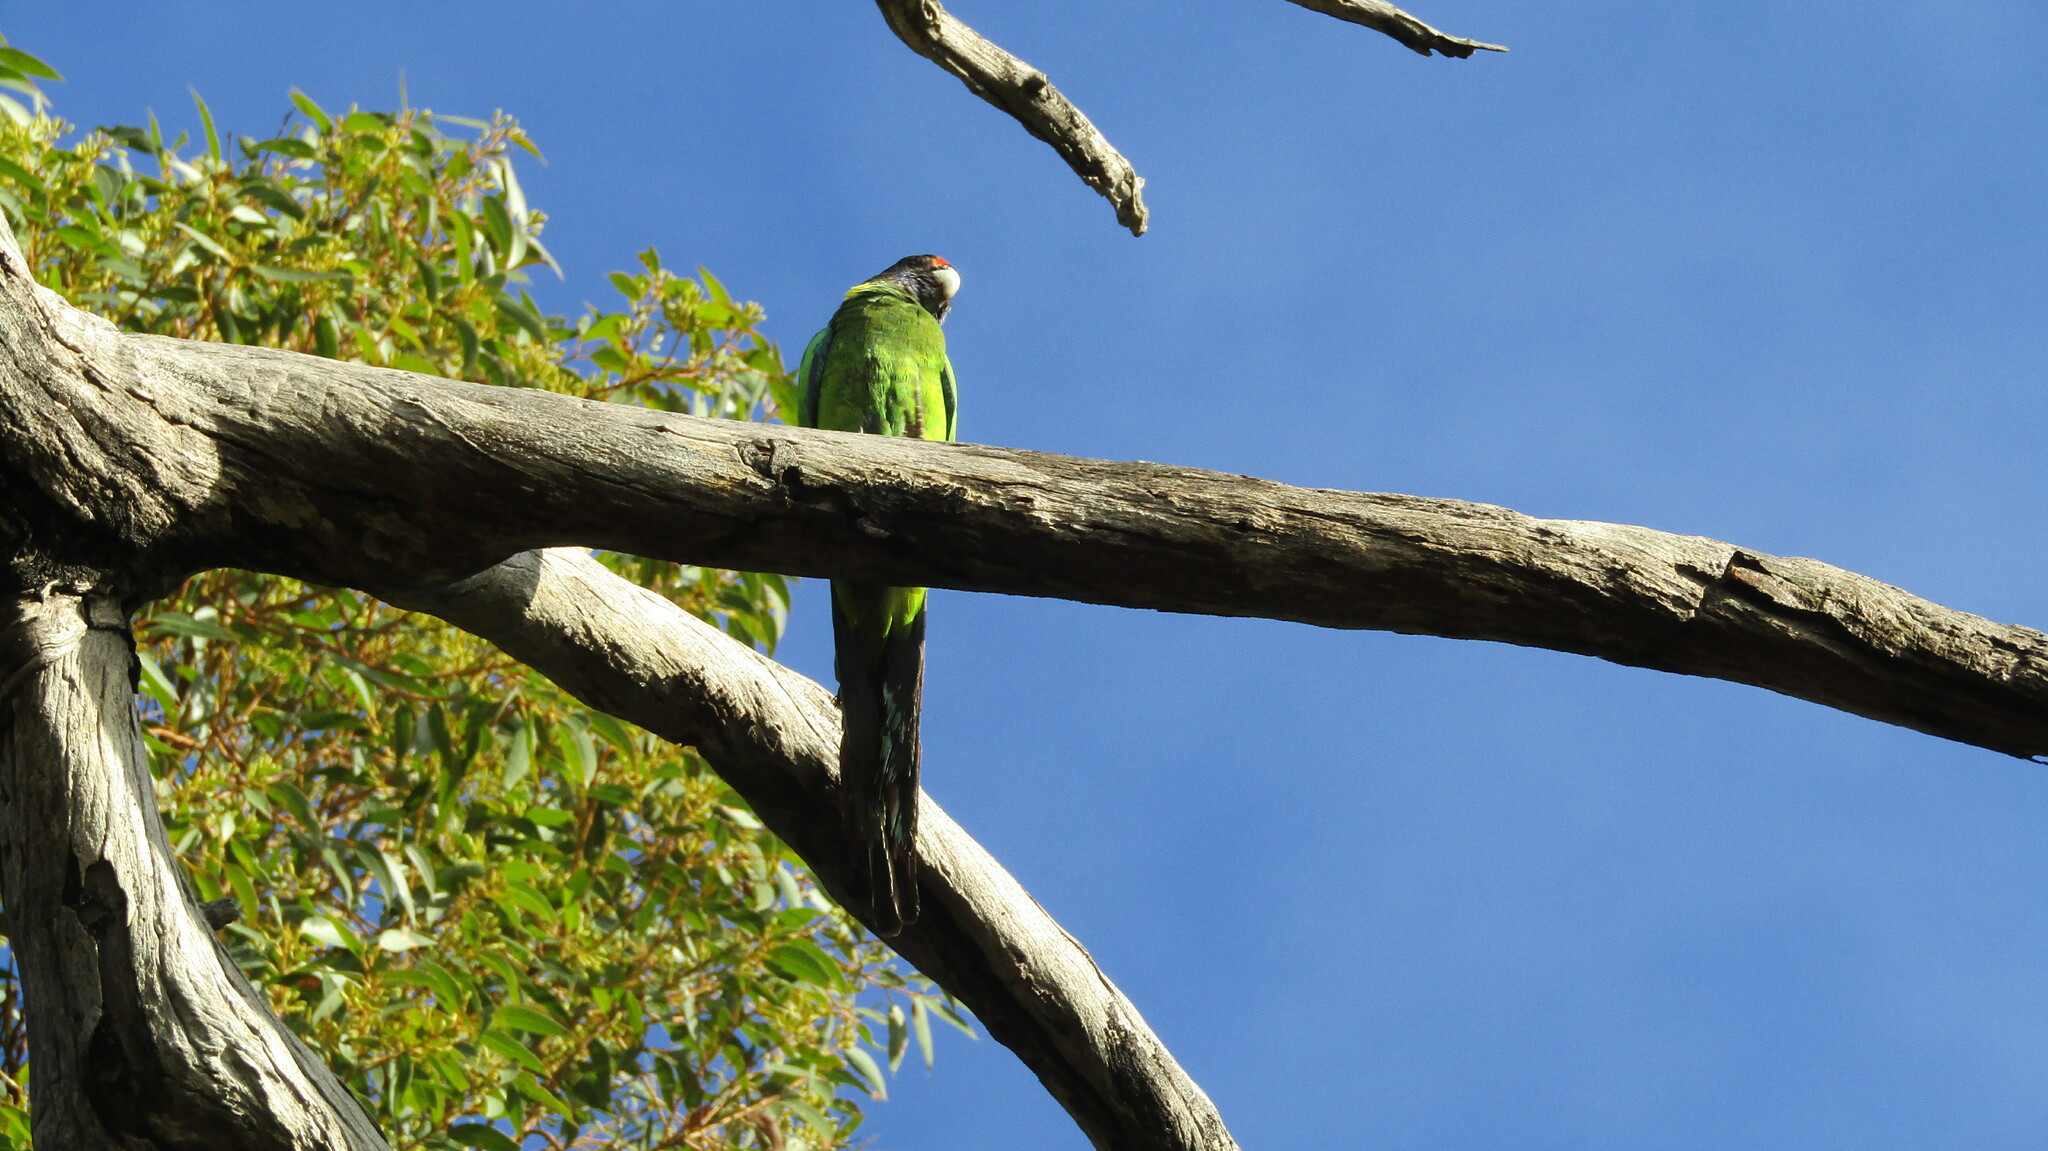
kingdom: Animalia
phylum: Chordata
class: Aves
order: Psittaciformes
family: Psittacidae
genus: Barnardius
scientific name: Barnardius zonarius
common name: Australian ringneck
